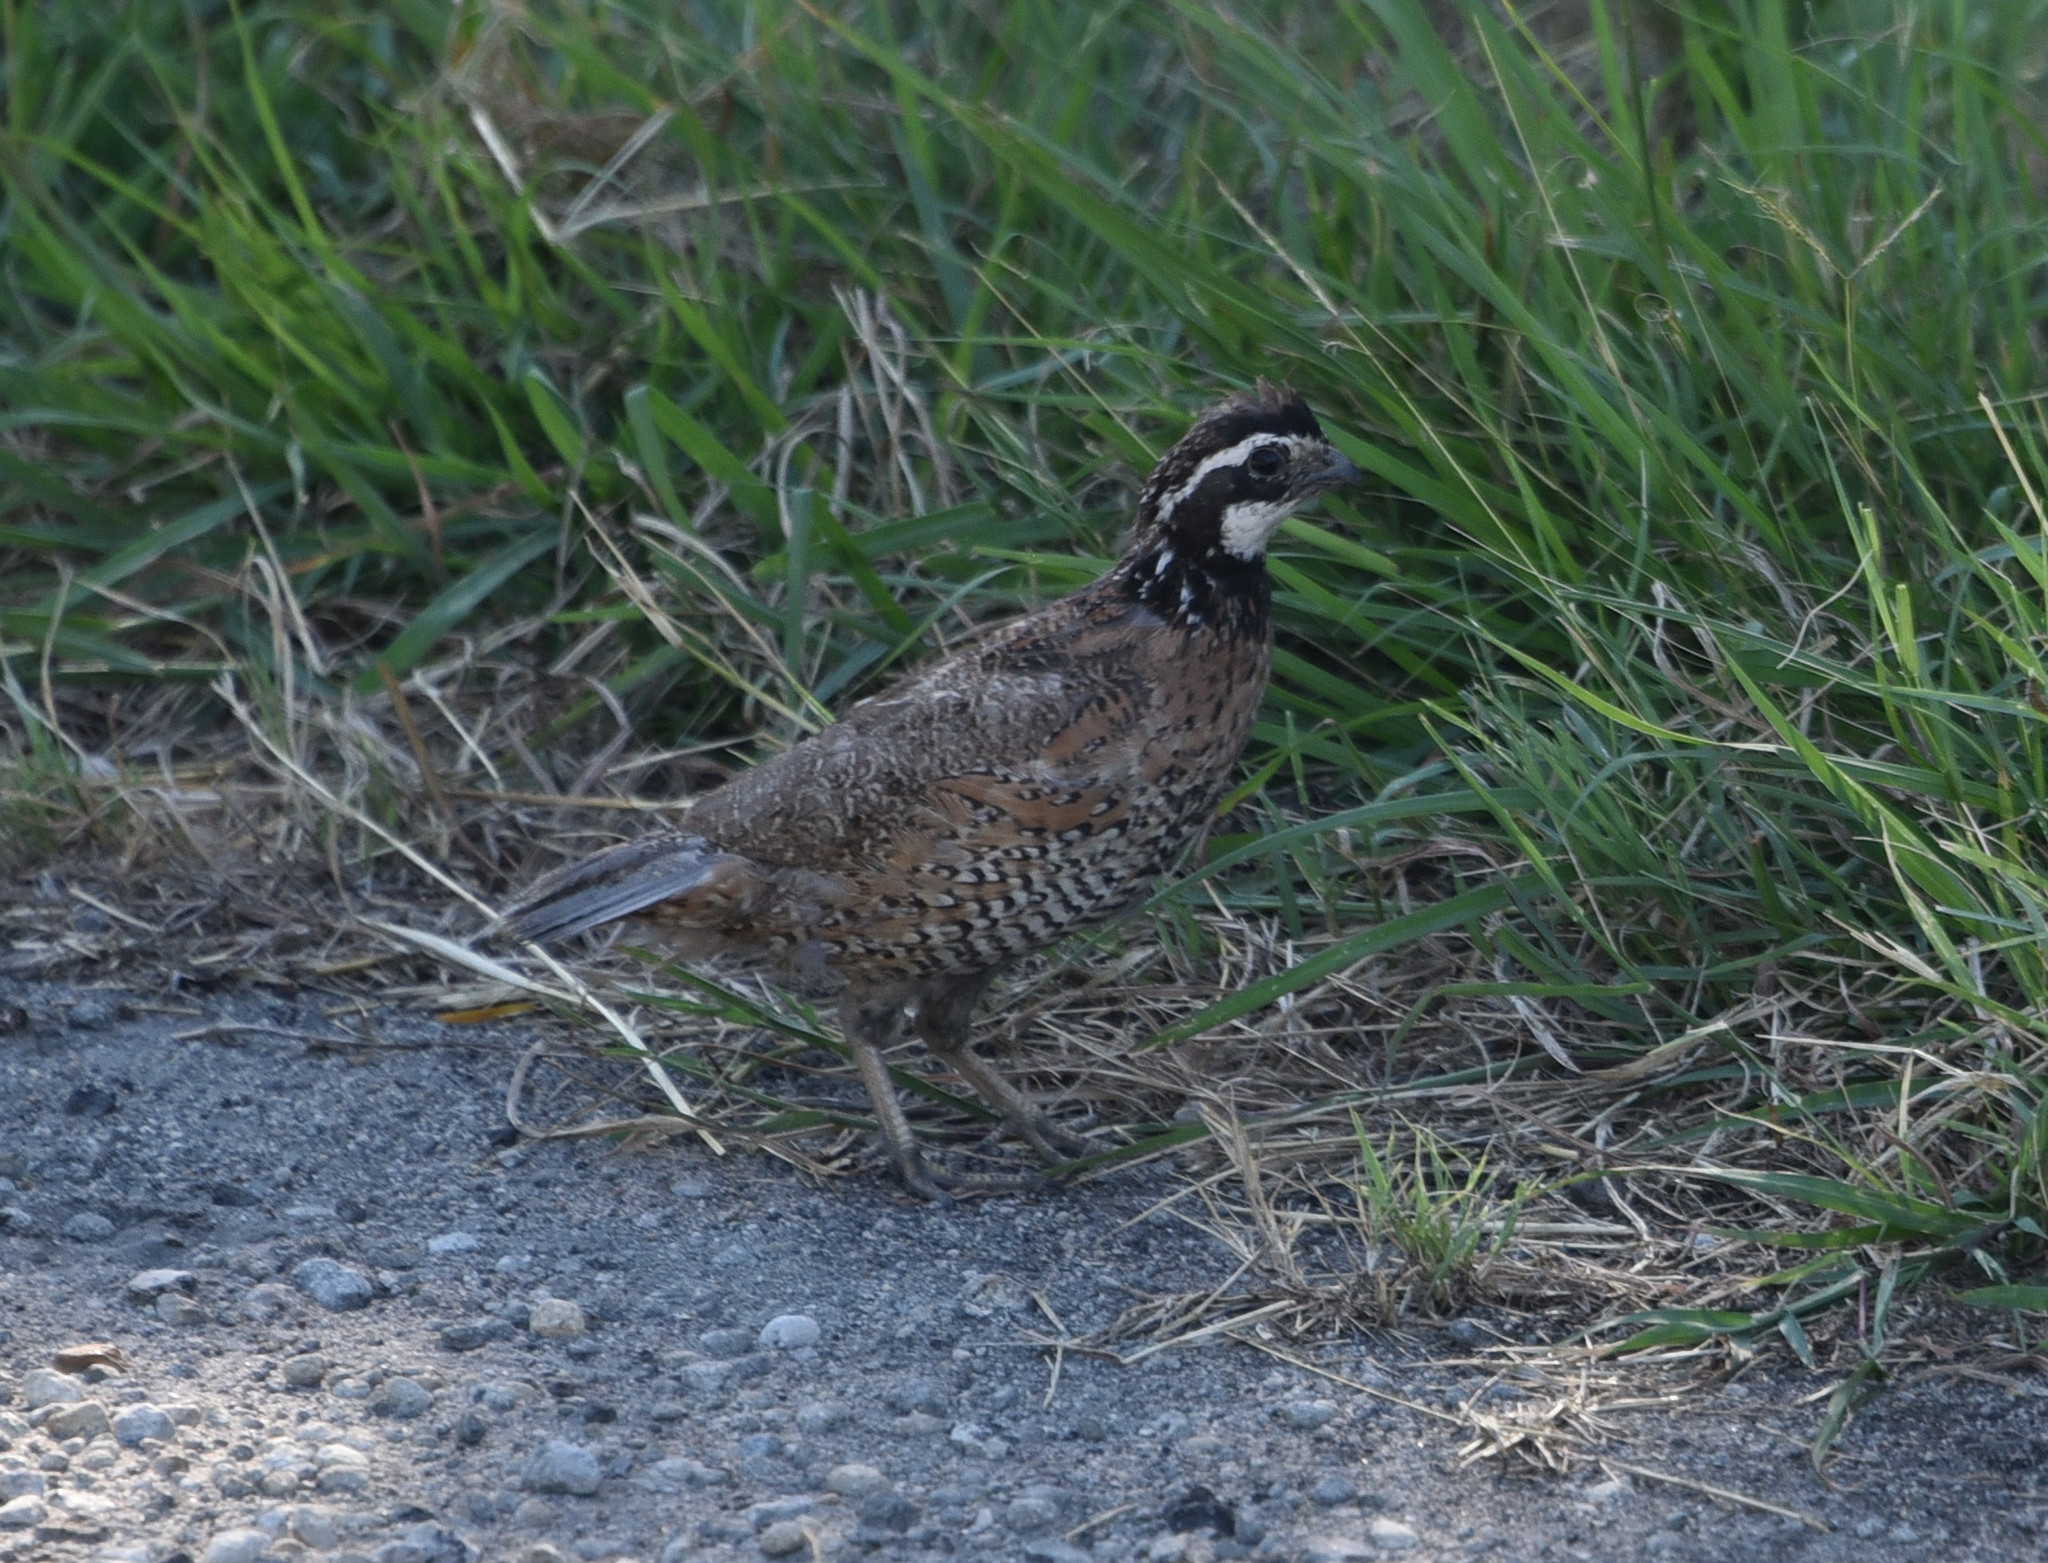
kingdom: Animalia
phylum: Chordata
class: Aves
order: Galliformes
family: Odontophoridae
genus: Colinus
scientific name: Colinus virginianus
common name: Northern bobwhite
